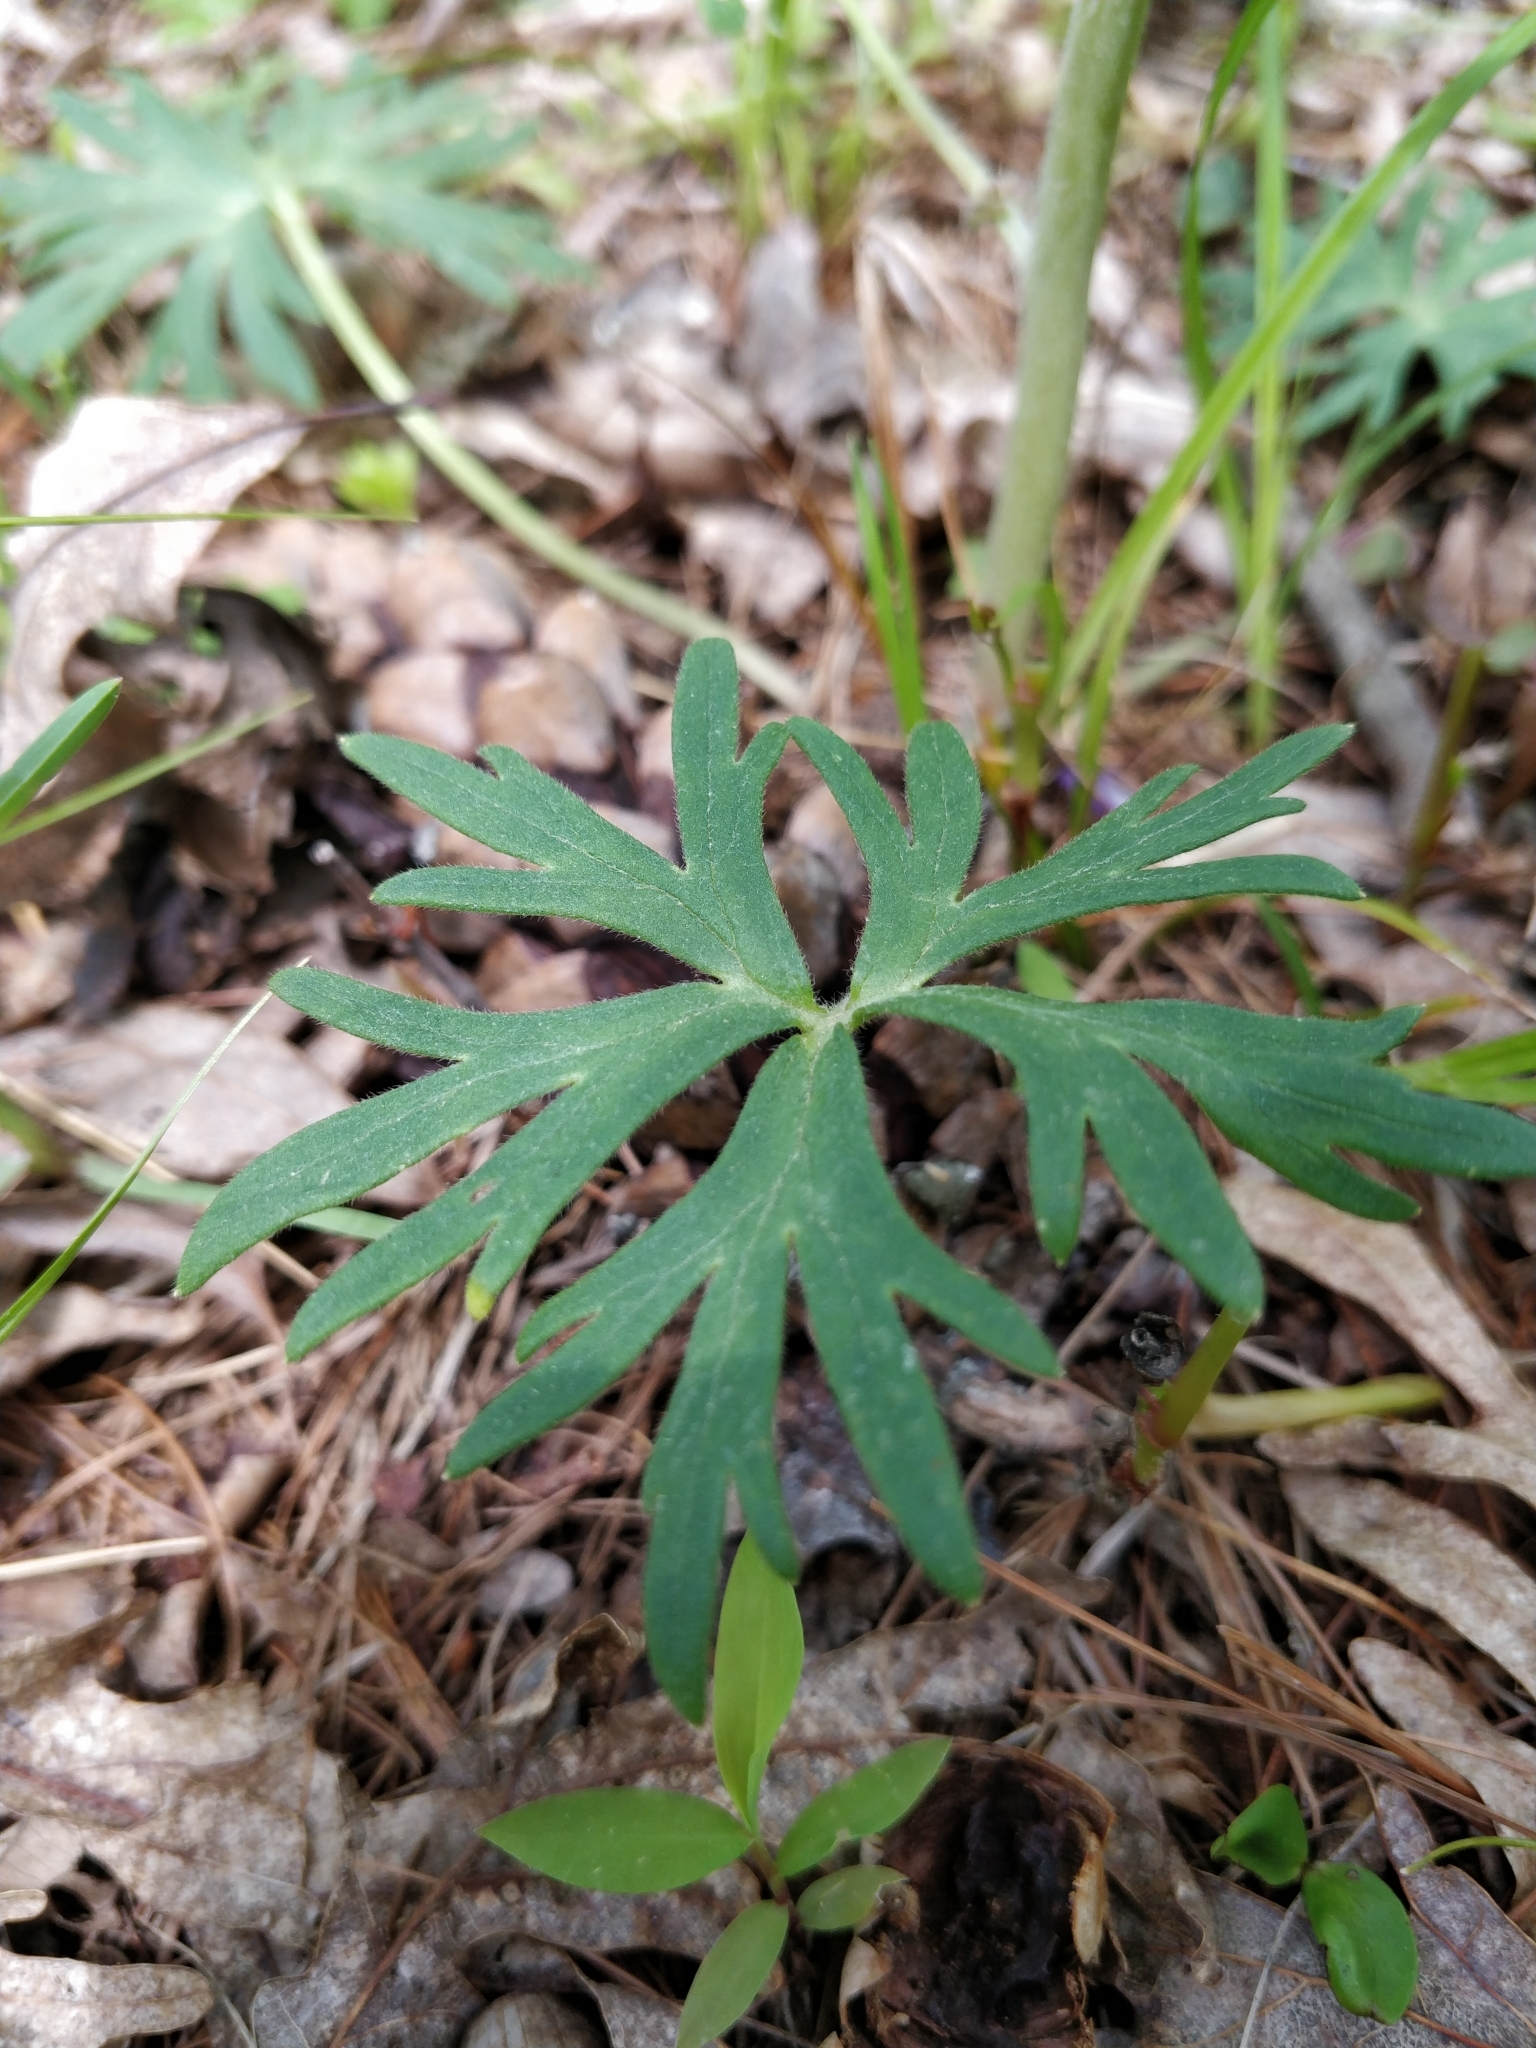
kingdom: Plantae
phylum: Tracheophyta
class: Magnoliopsida
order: Ranunculales
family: Ranunculaceae
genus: Delphinium
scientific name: Delphinium tricorne
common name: Dwarf larkspur
